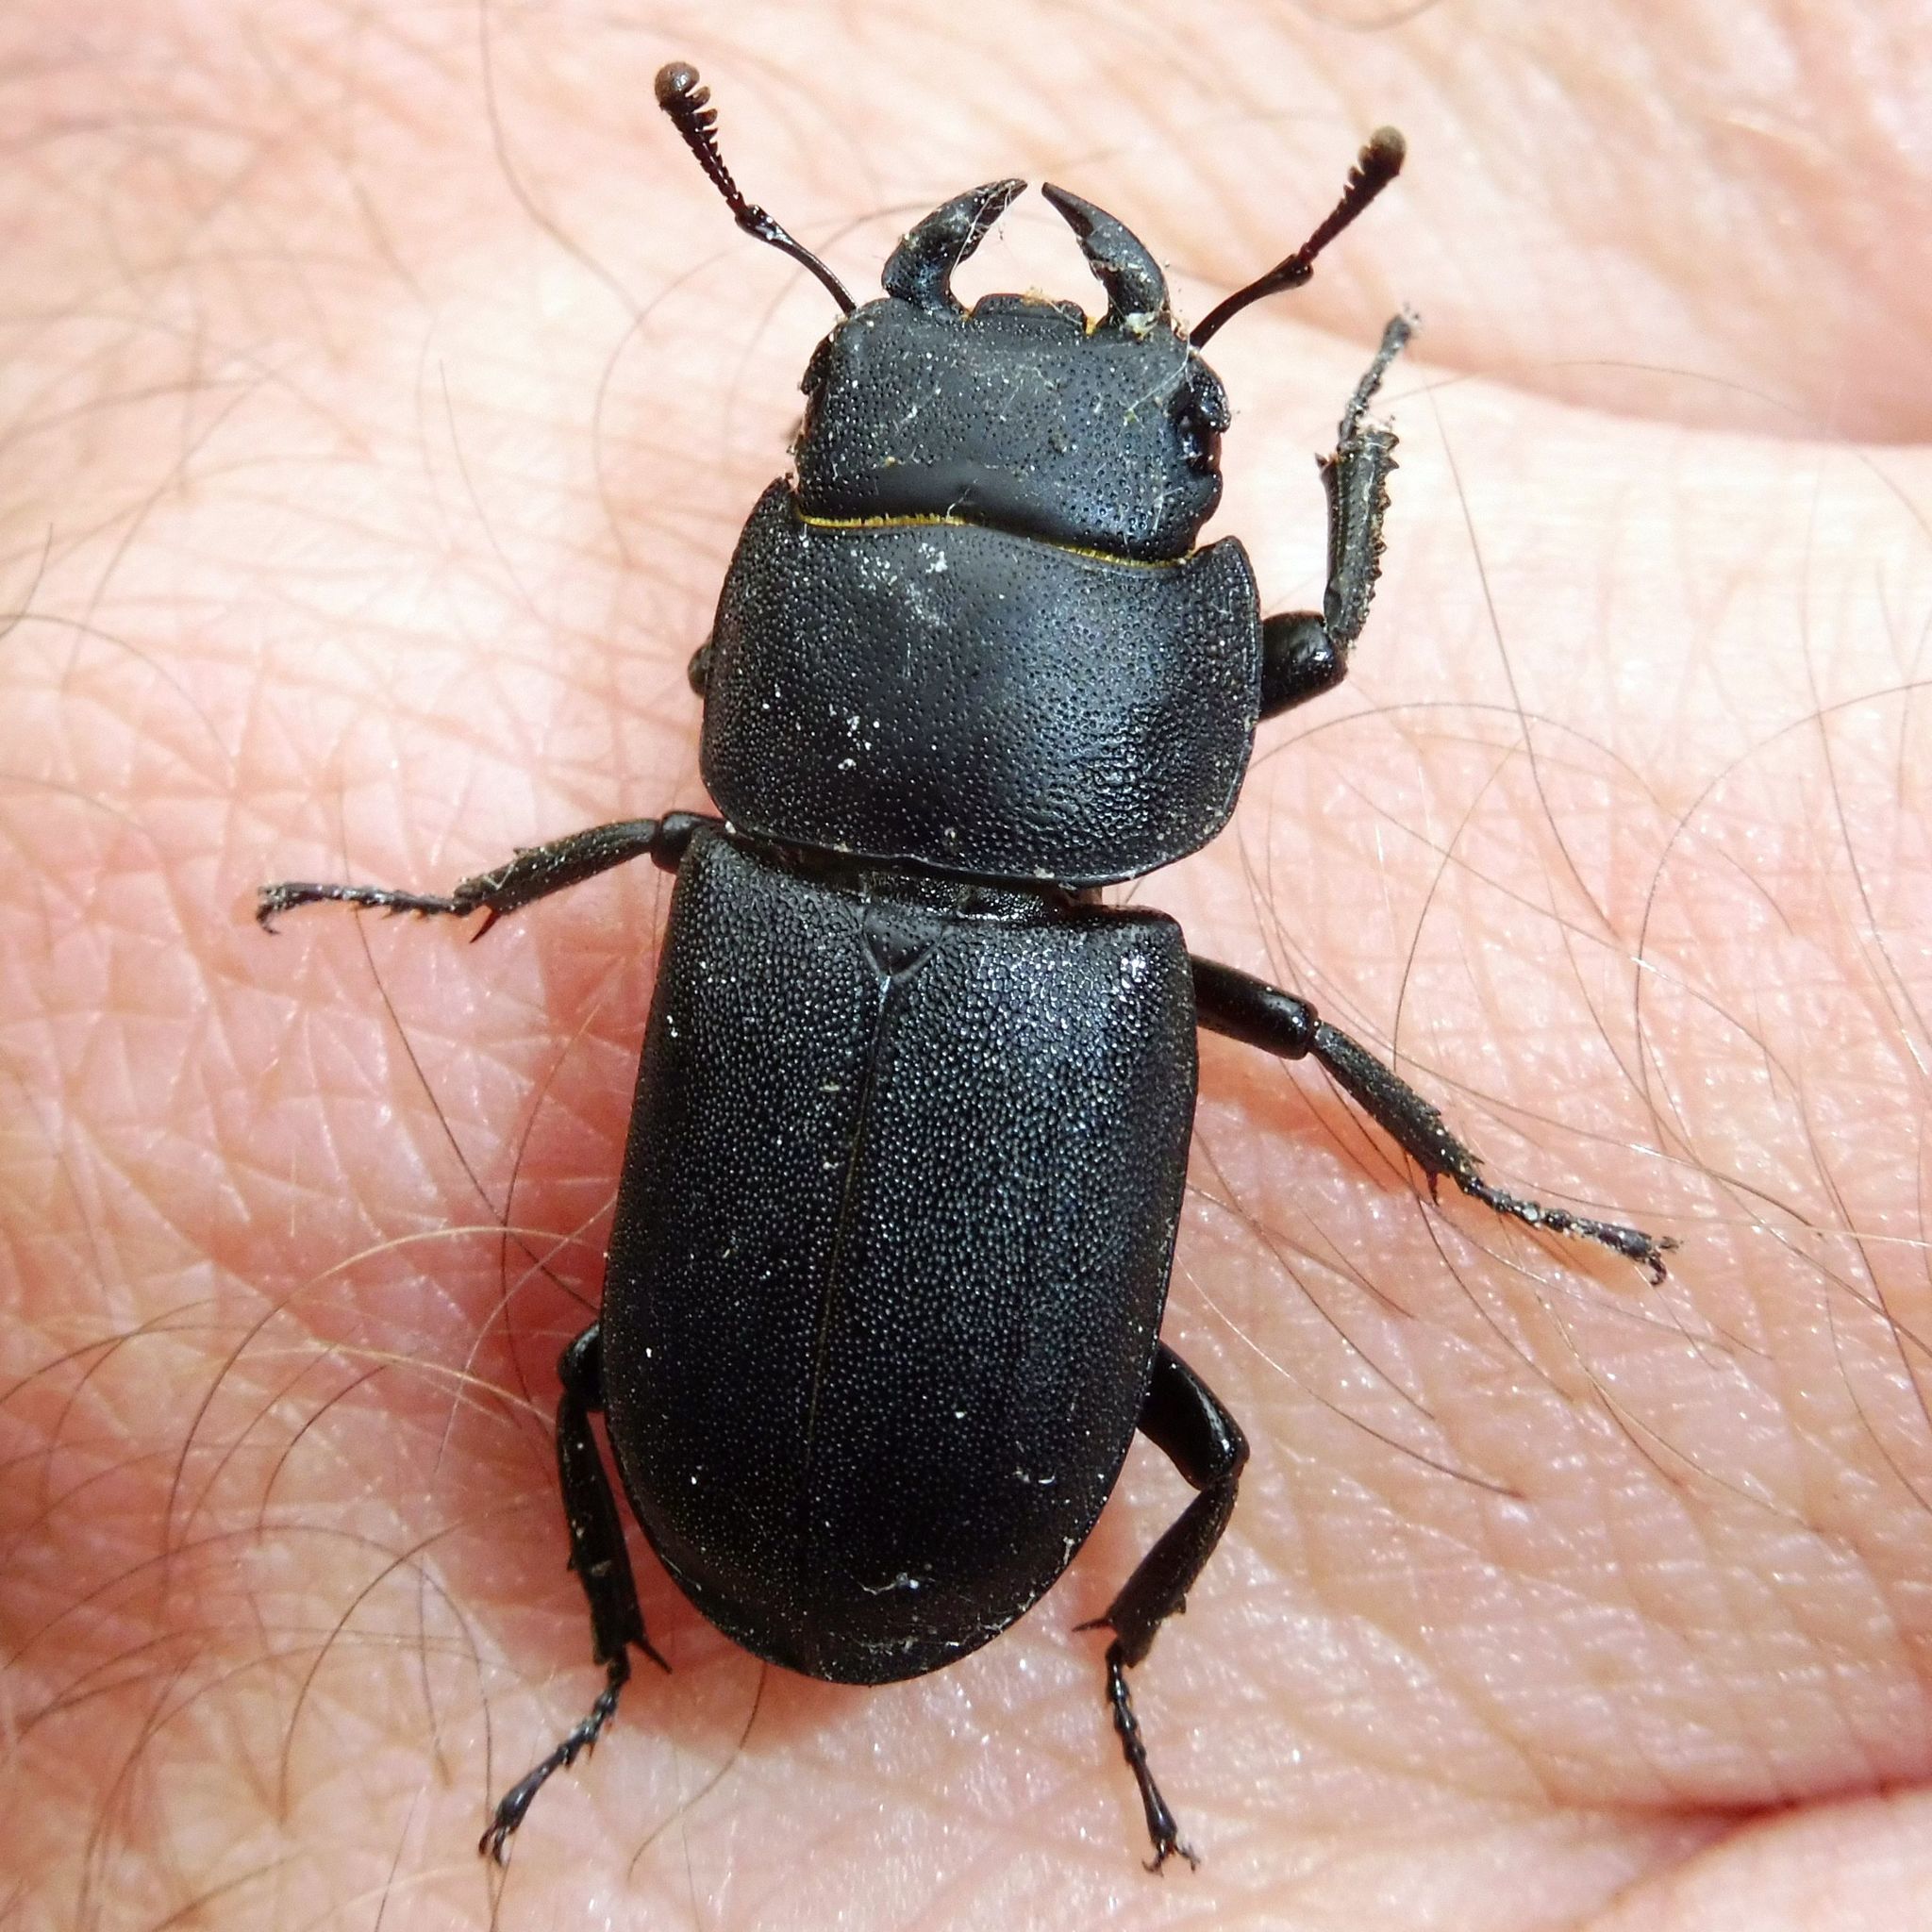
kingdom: Animalia
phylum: Arthropoda
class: Insecta
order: Coleoptera
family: Lucanidae
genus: Dorcus
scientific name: Dorcus parallelipipedus
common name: Lesser stag beetle
